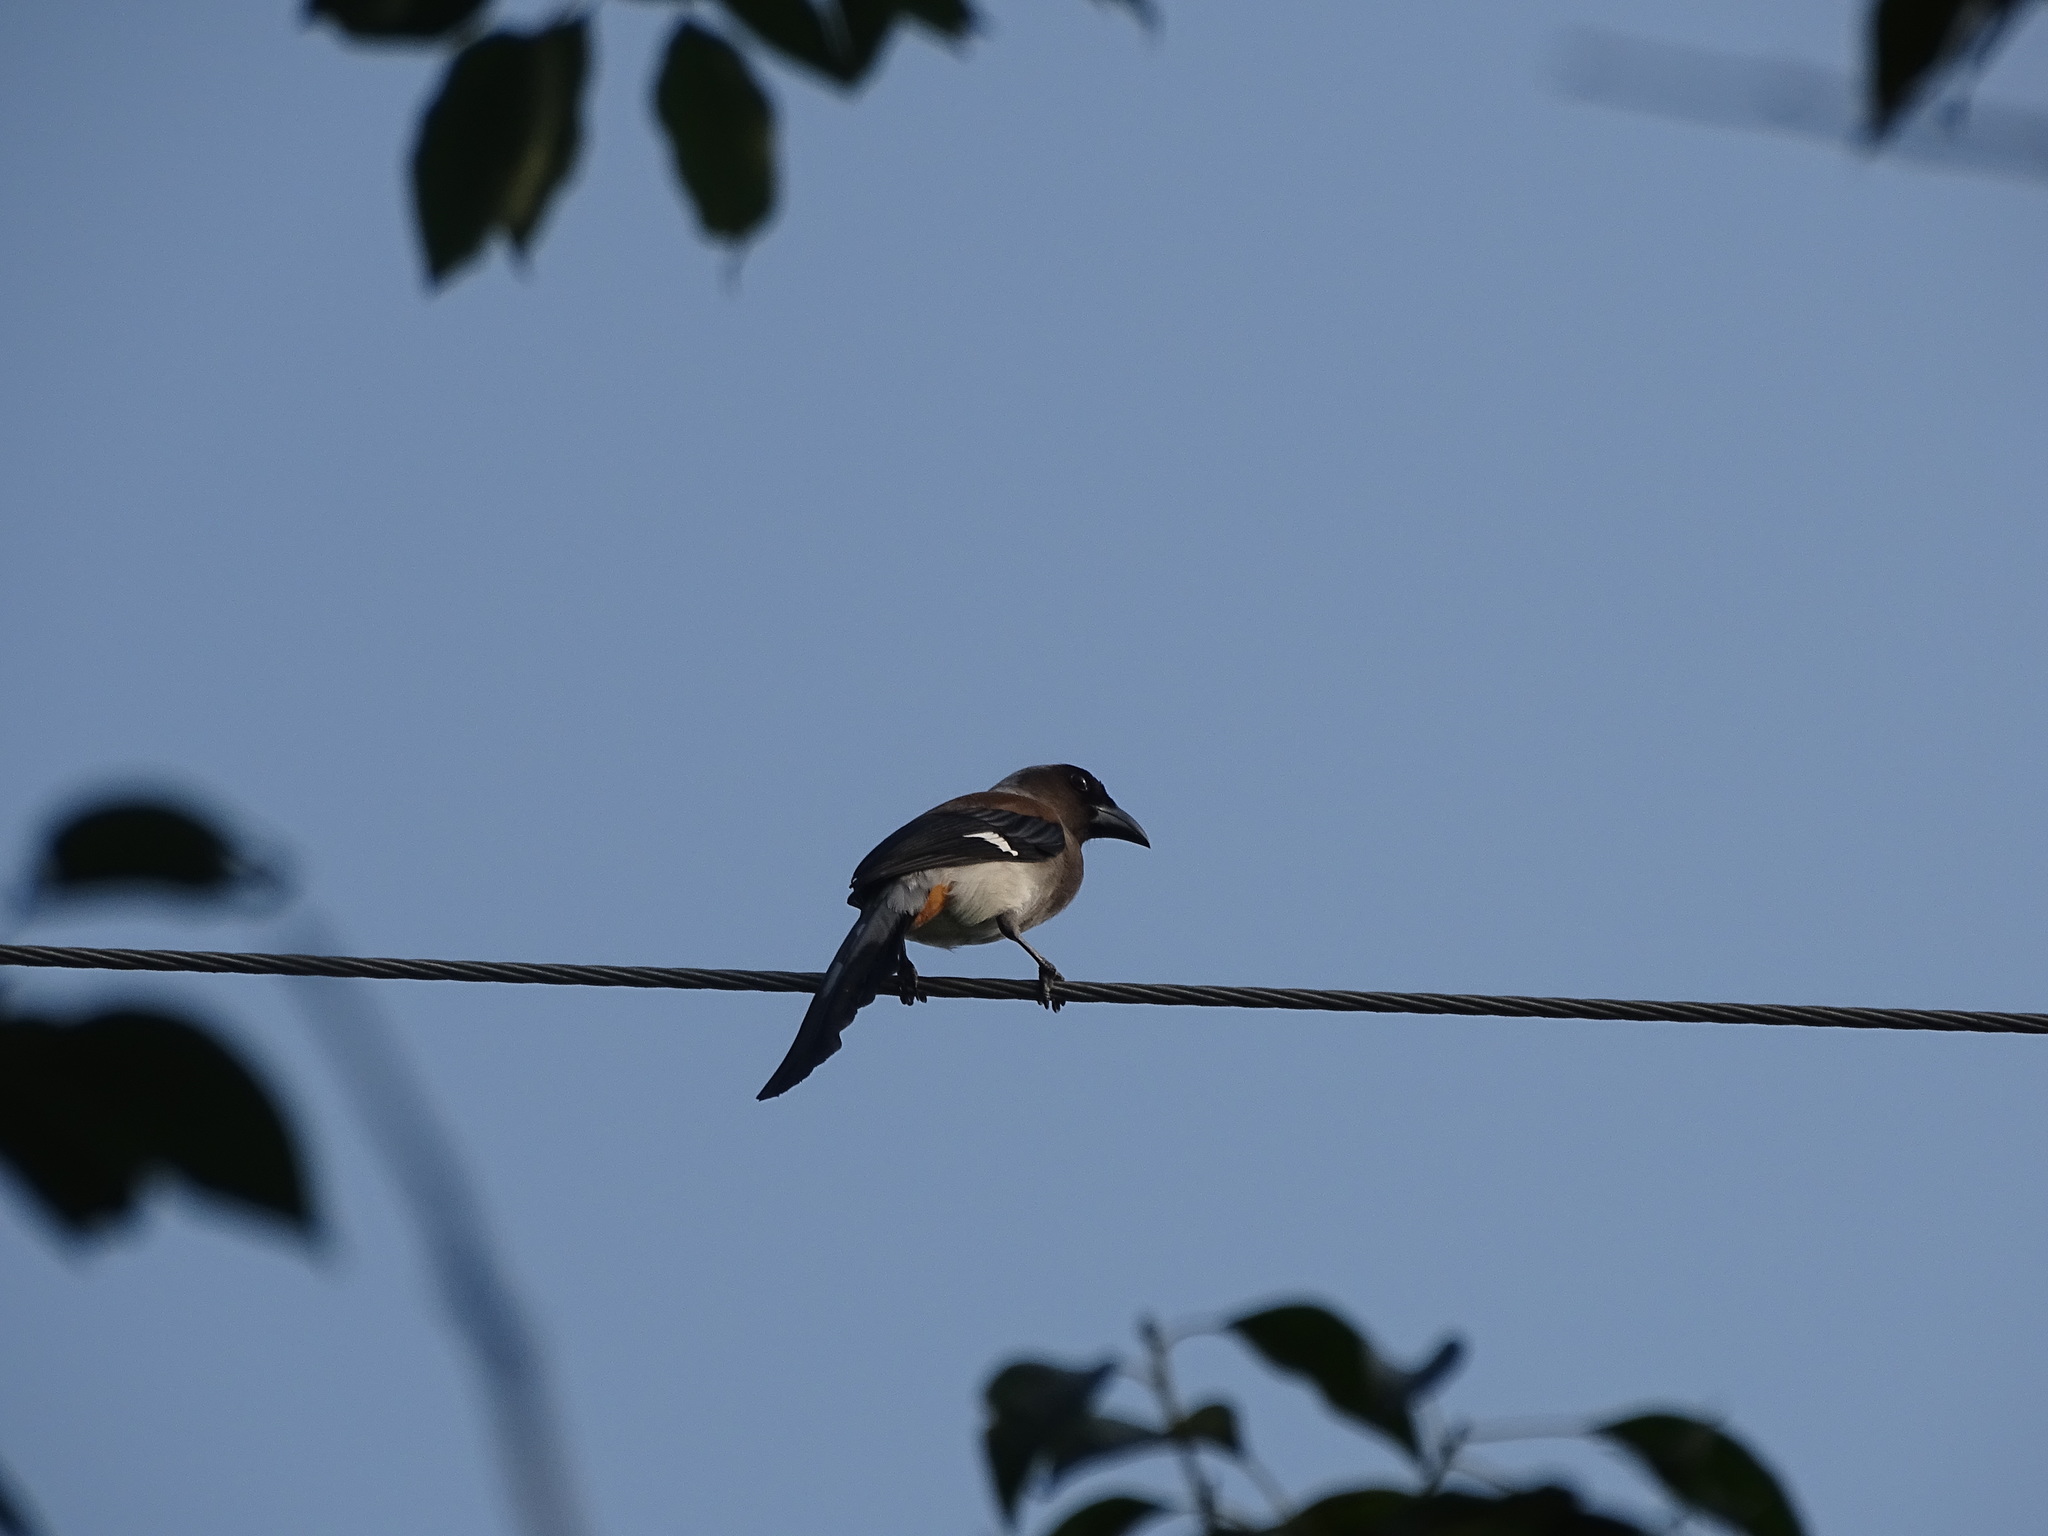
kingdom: Animalia
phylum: Chordata
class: Aves
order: Passeriformes
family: Corvidae
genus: Dendrocitta
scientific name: Dendrocitta formosae
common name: Grey treepie
